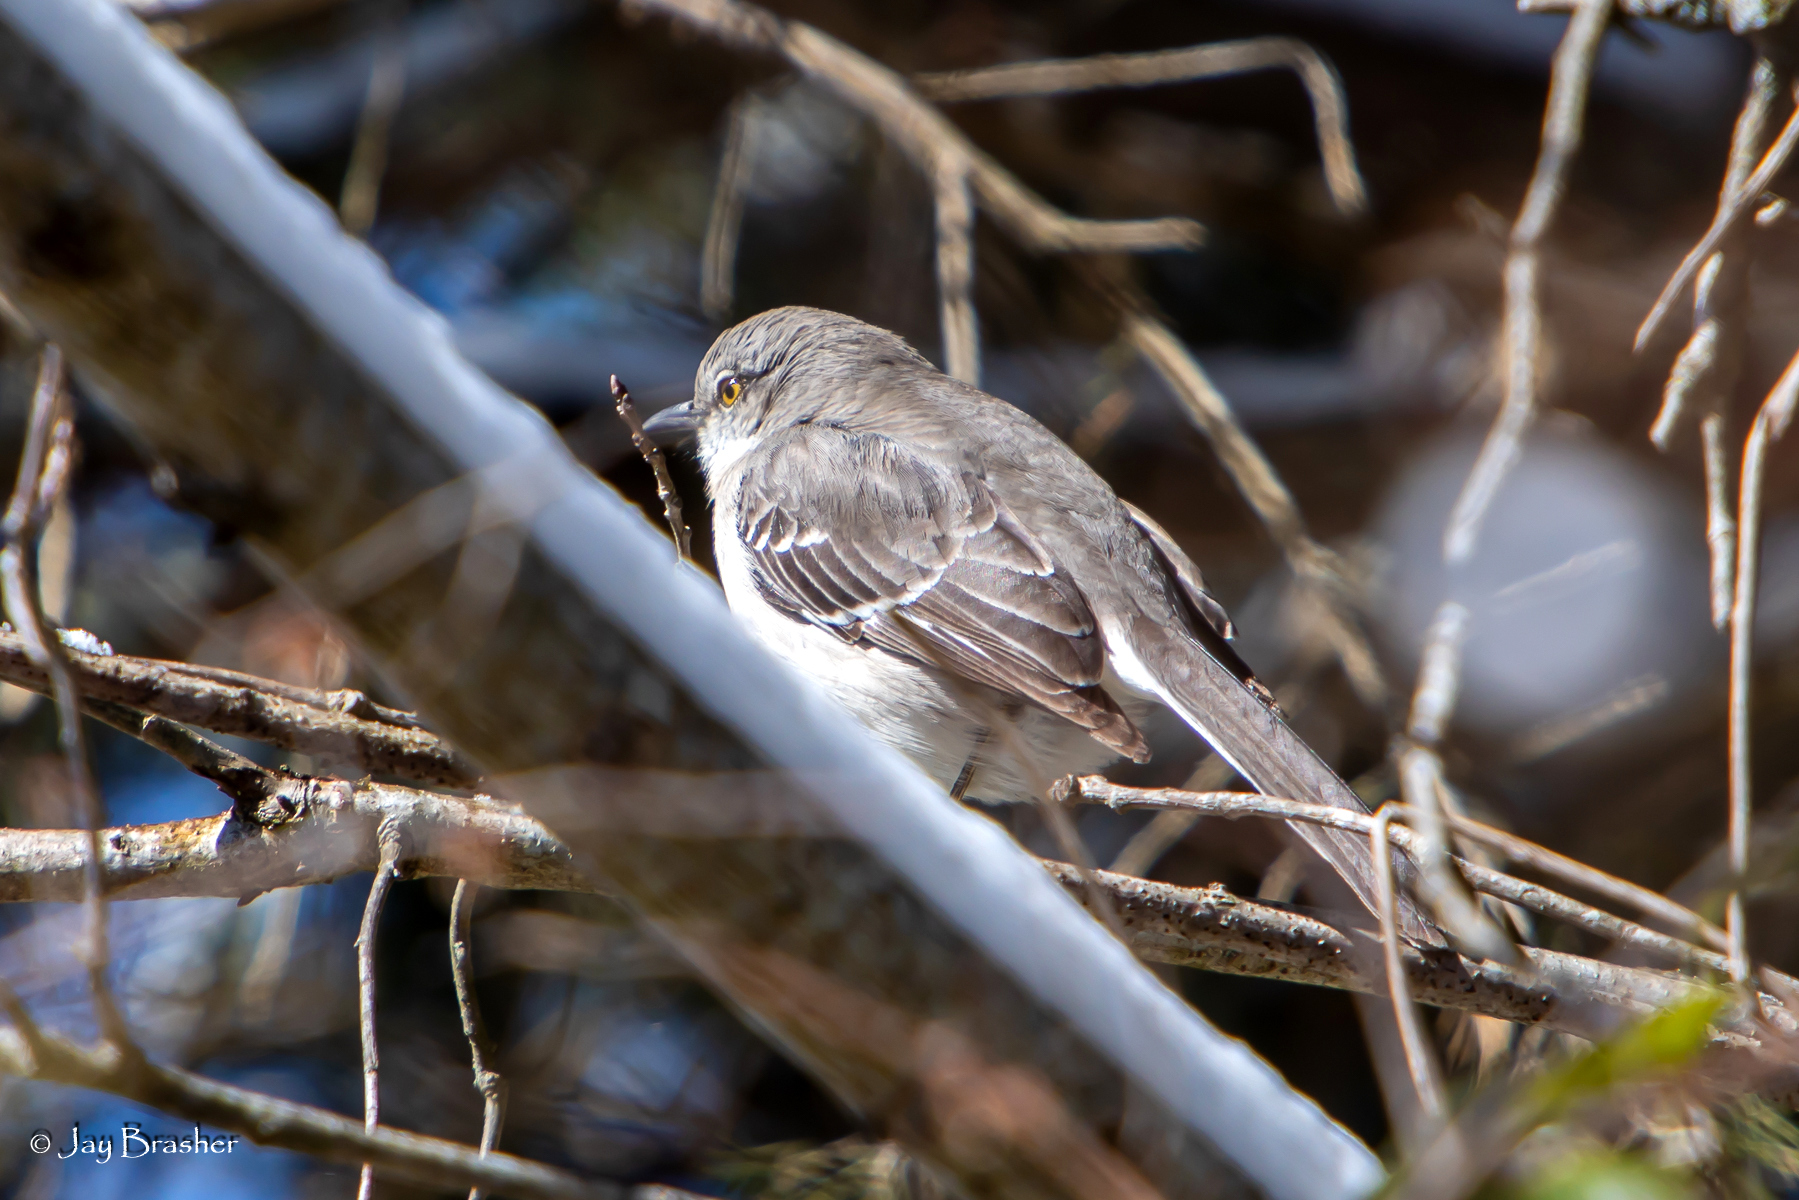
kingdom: Animalia
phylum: Chordata
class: Aves
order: Passeriformes
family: Mimidae
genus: Mimus
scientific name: Mimus polyglottos
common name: Northern mockingbird
